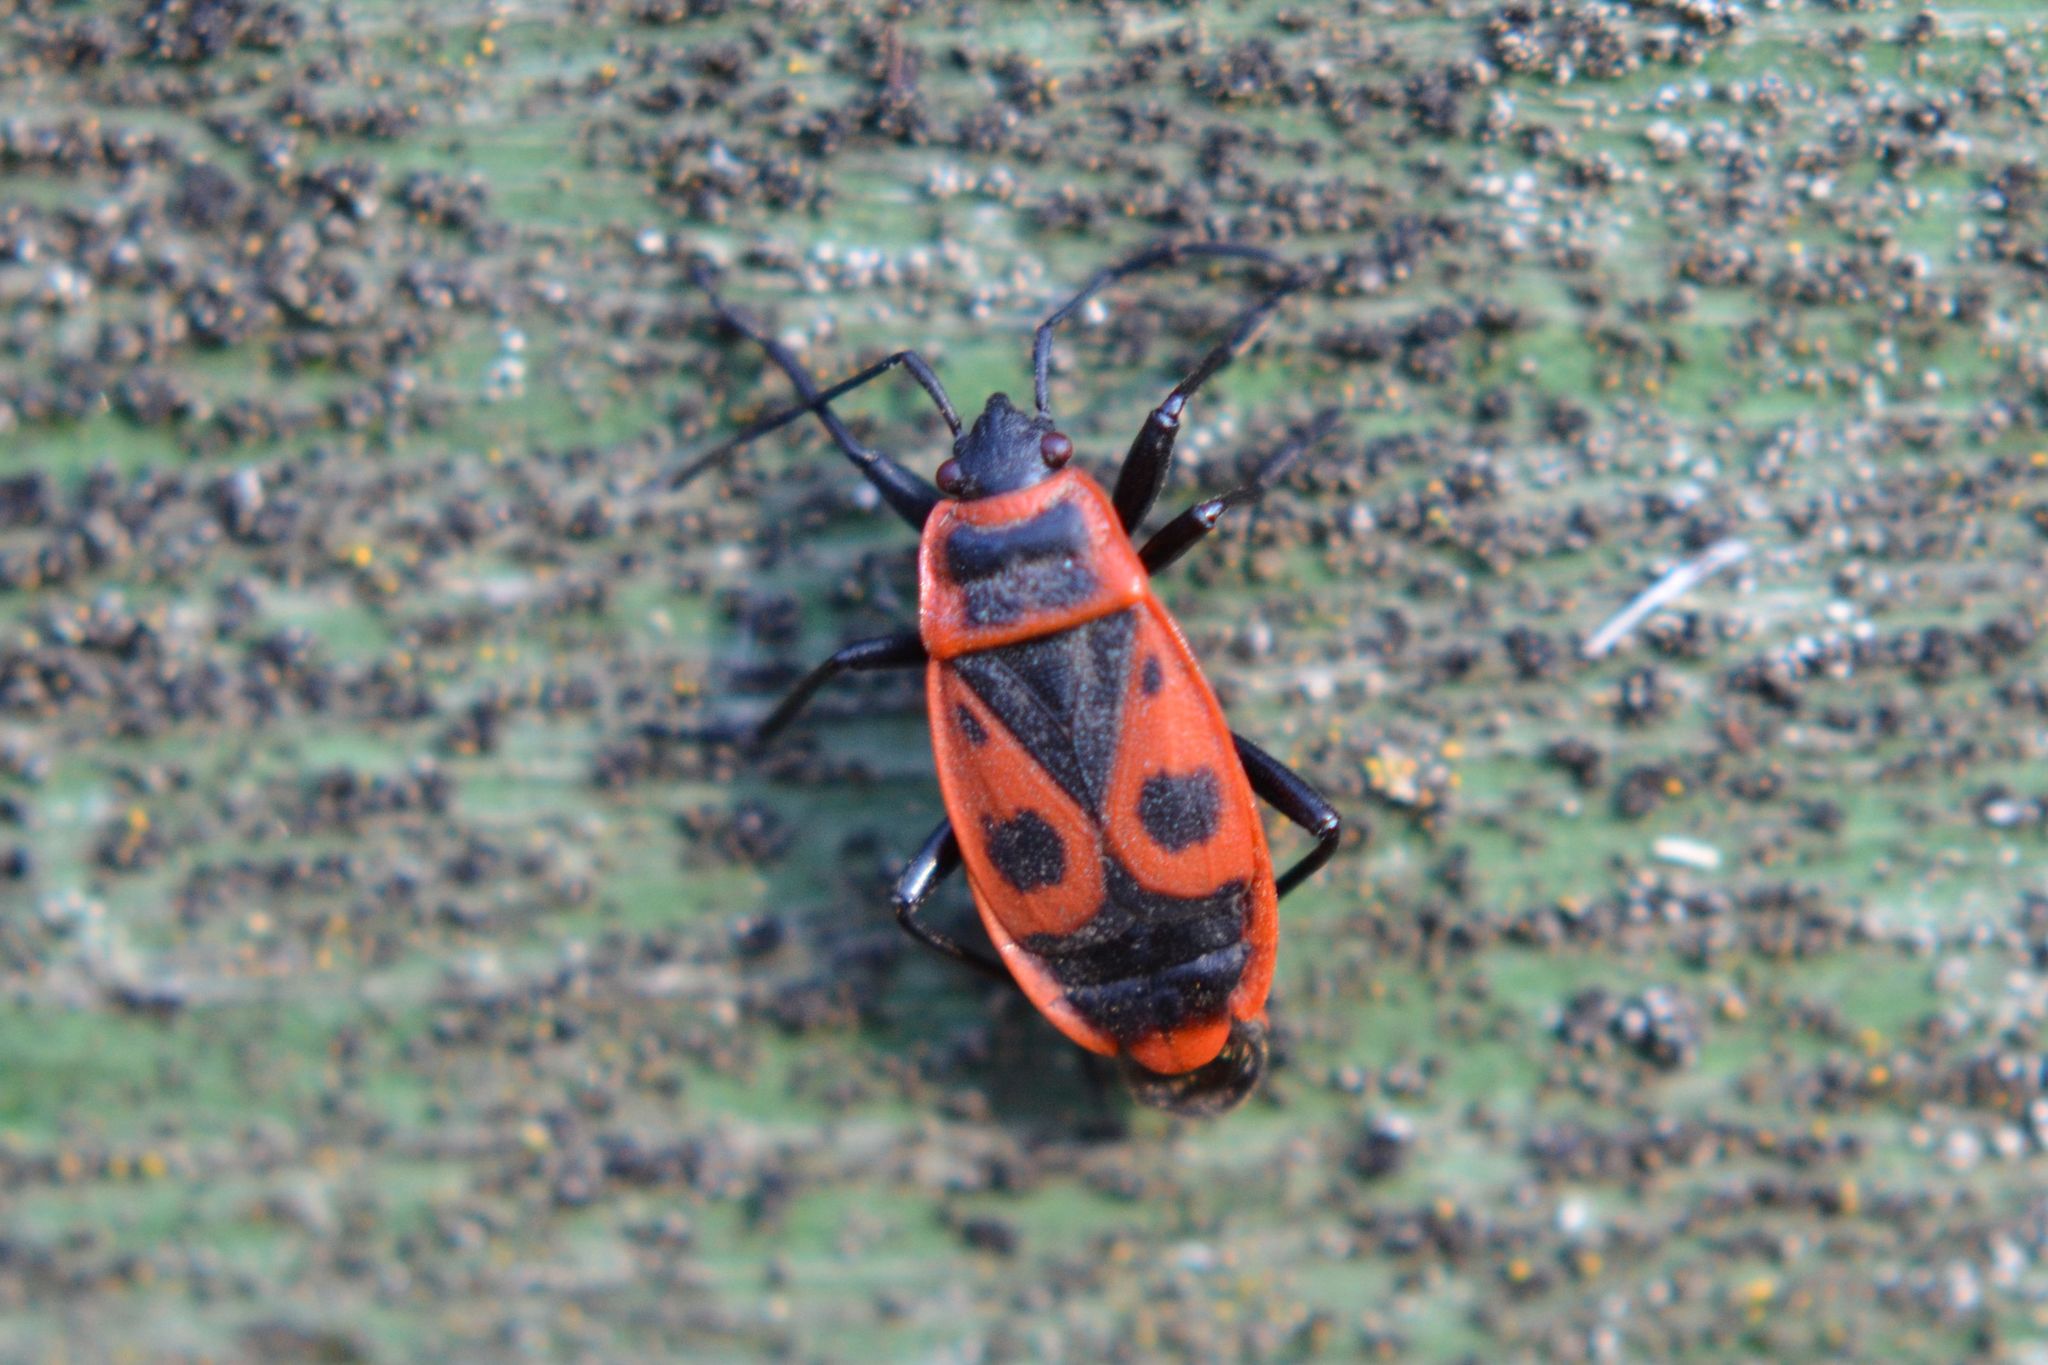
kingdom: Animalia
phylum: Arthropoda
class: Insecta
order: Hemiptera
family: Pyrrhocoridae
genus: Pyrrhocoris
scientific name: Pyrrhocoris apterus
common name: Firebug
